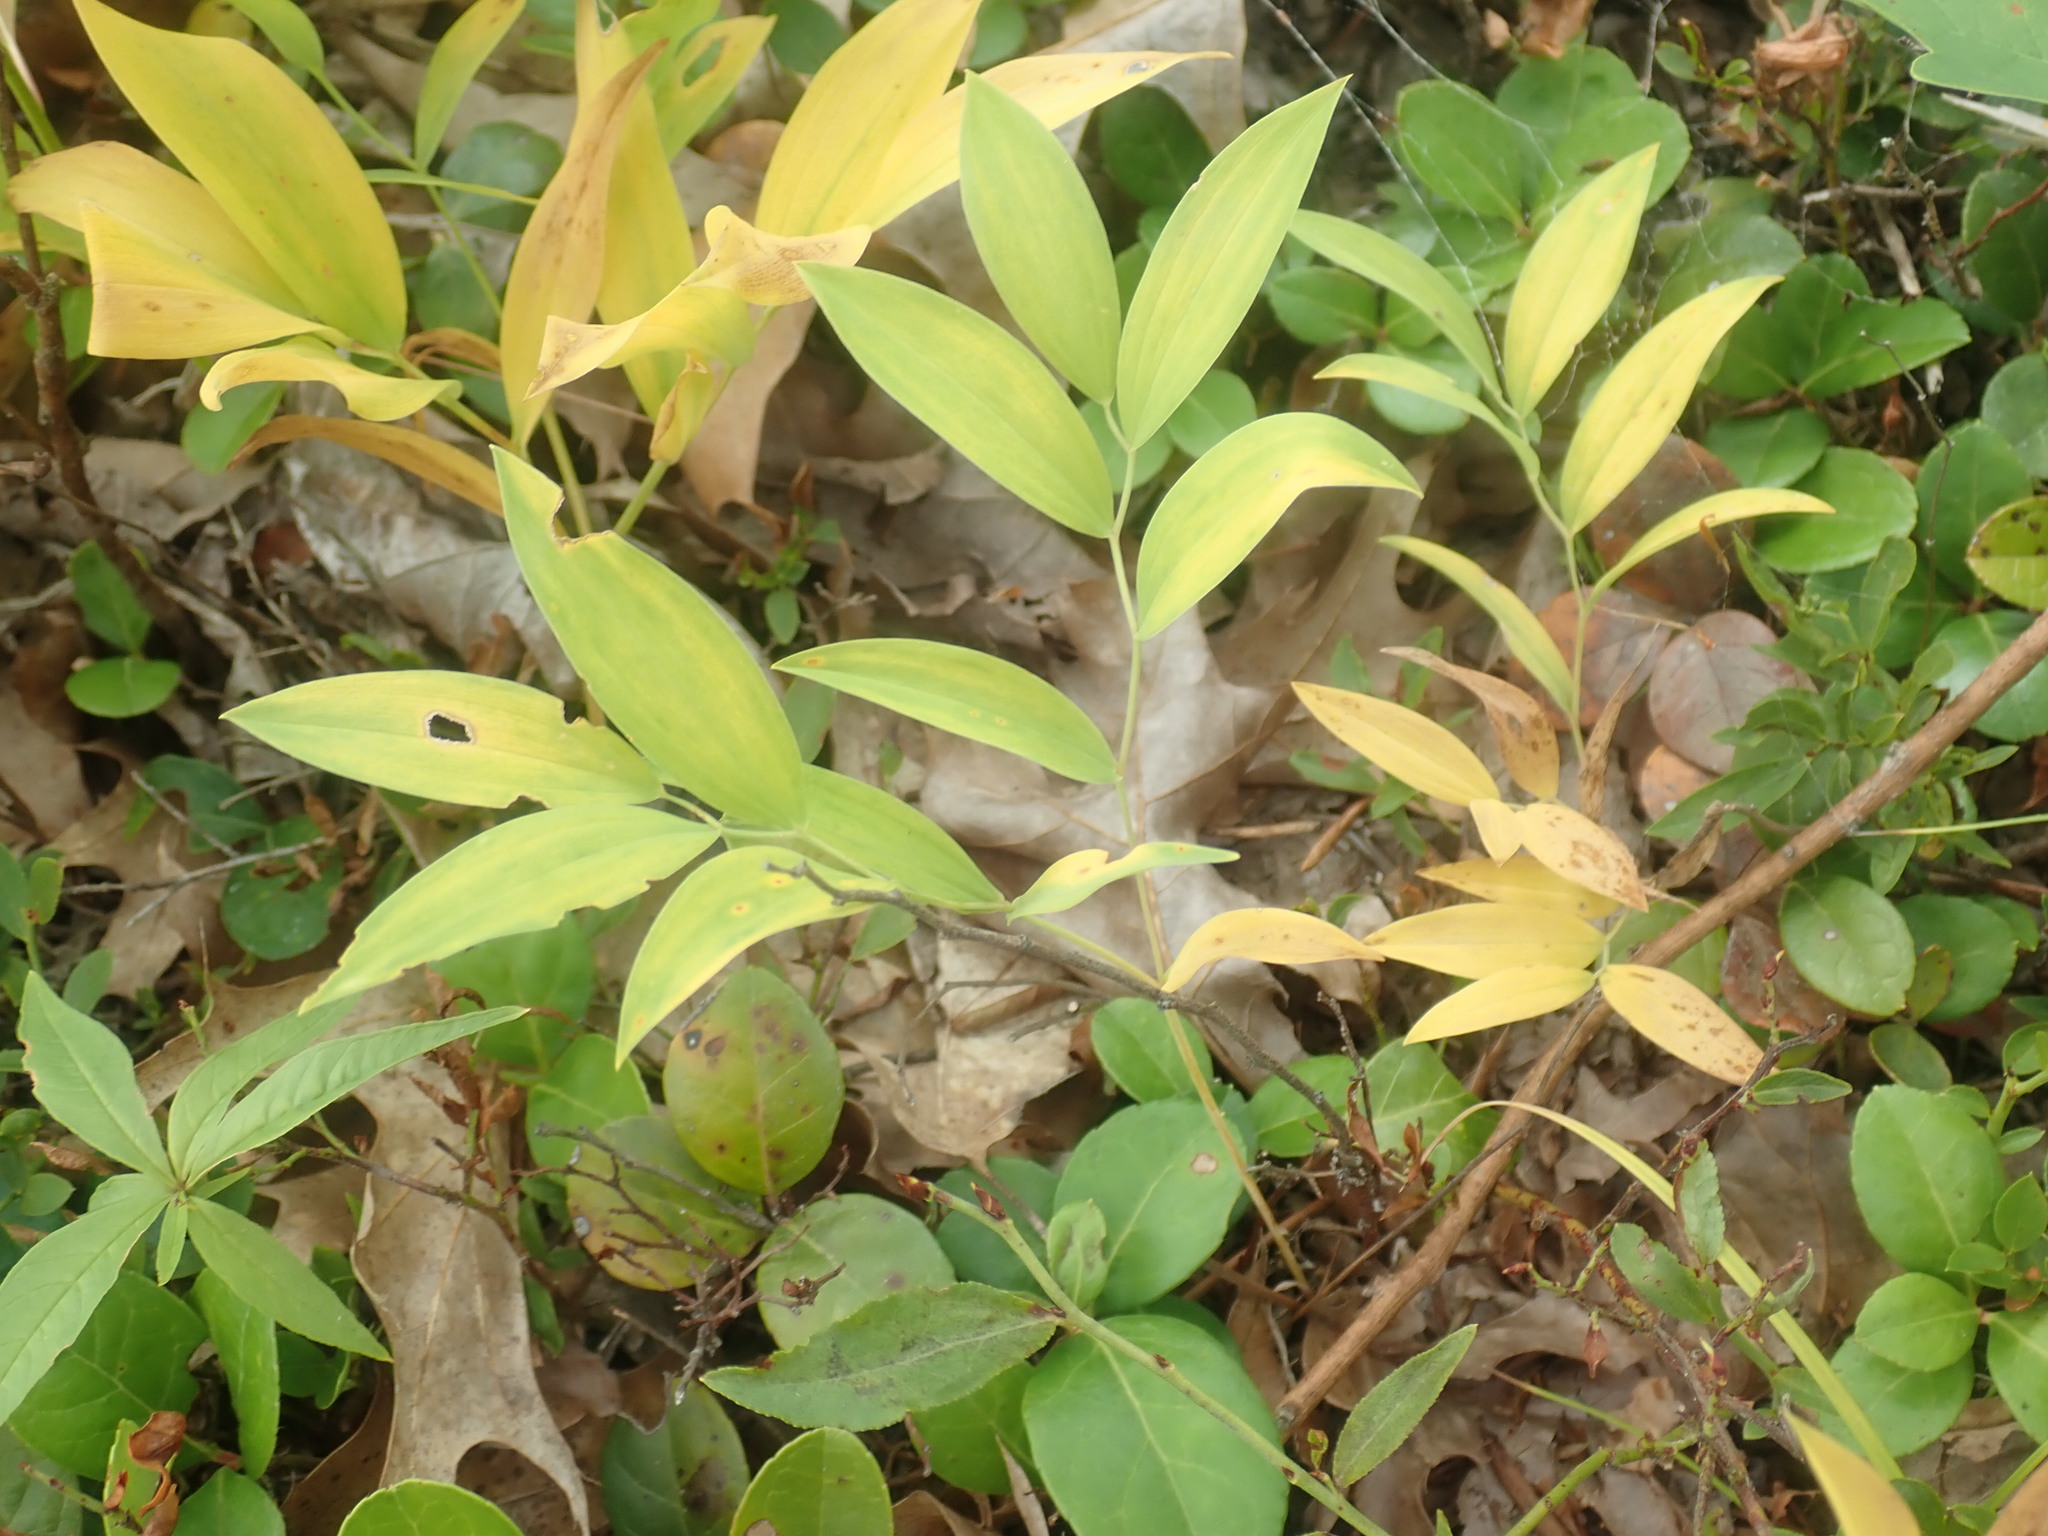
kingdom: Plantae
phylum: Tracheophyta
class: Liliopsida
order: Liliales
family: Colchicaceae
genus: Uvularia
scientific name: Uvularia sessilifolia
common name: Straw-lily
